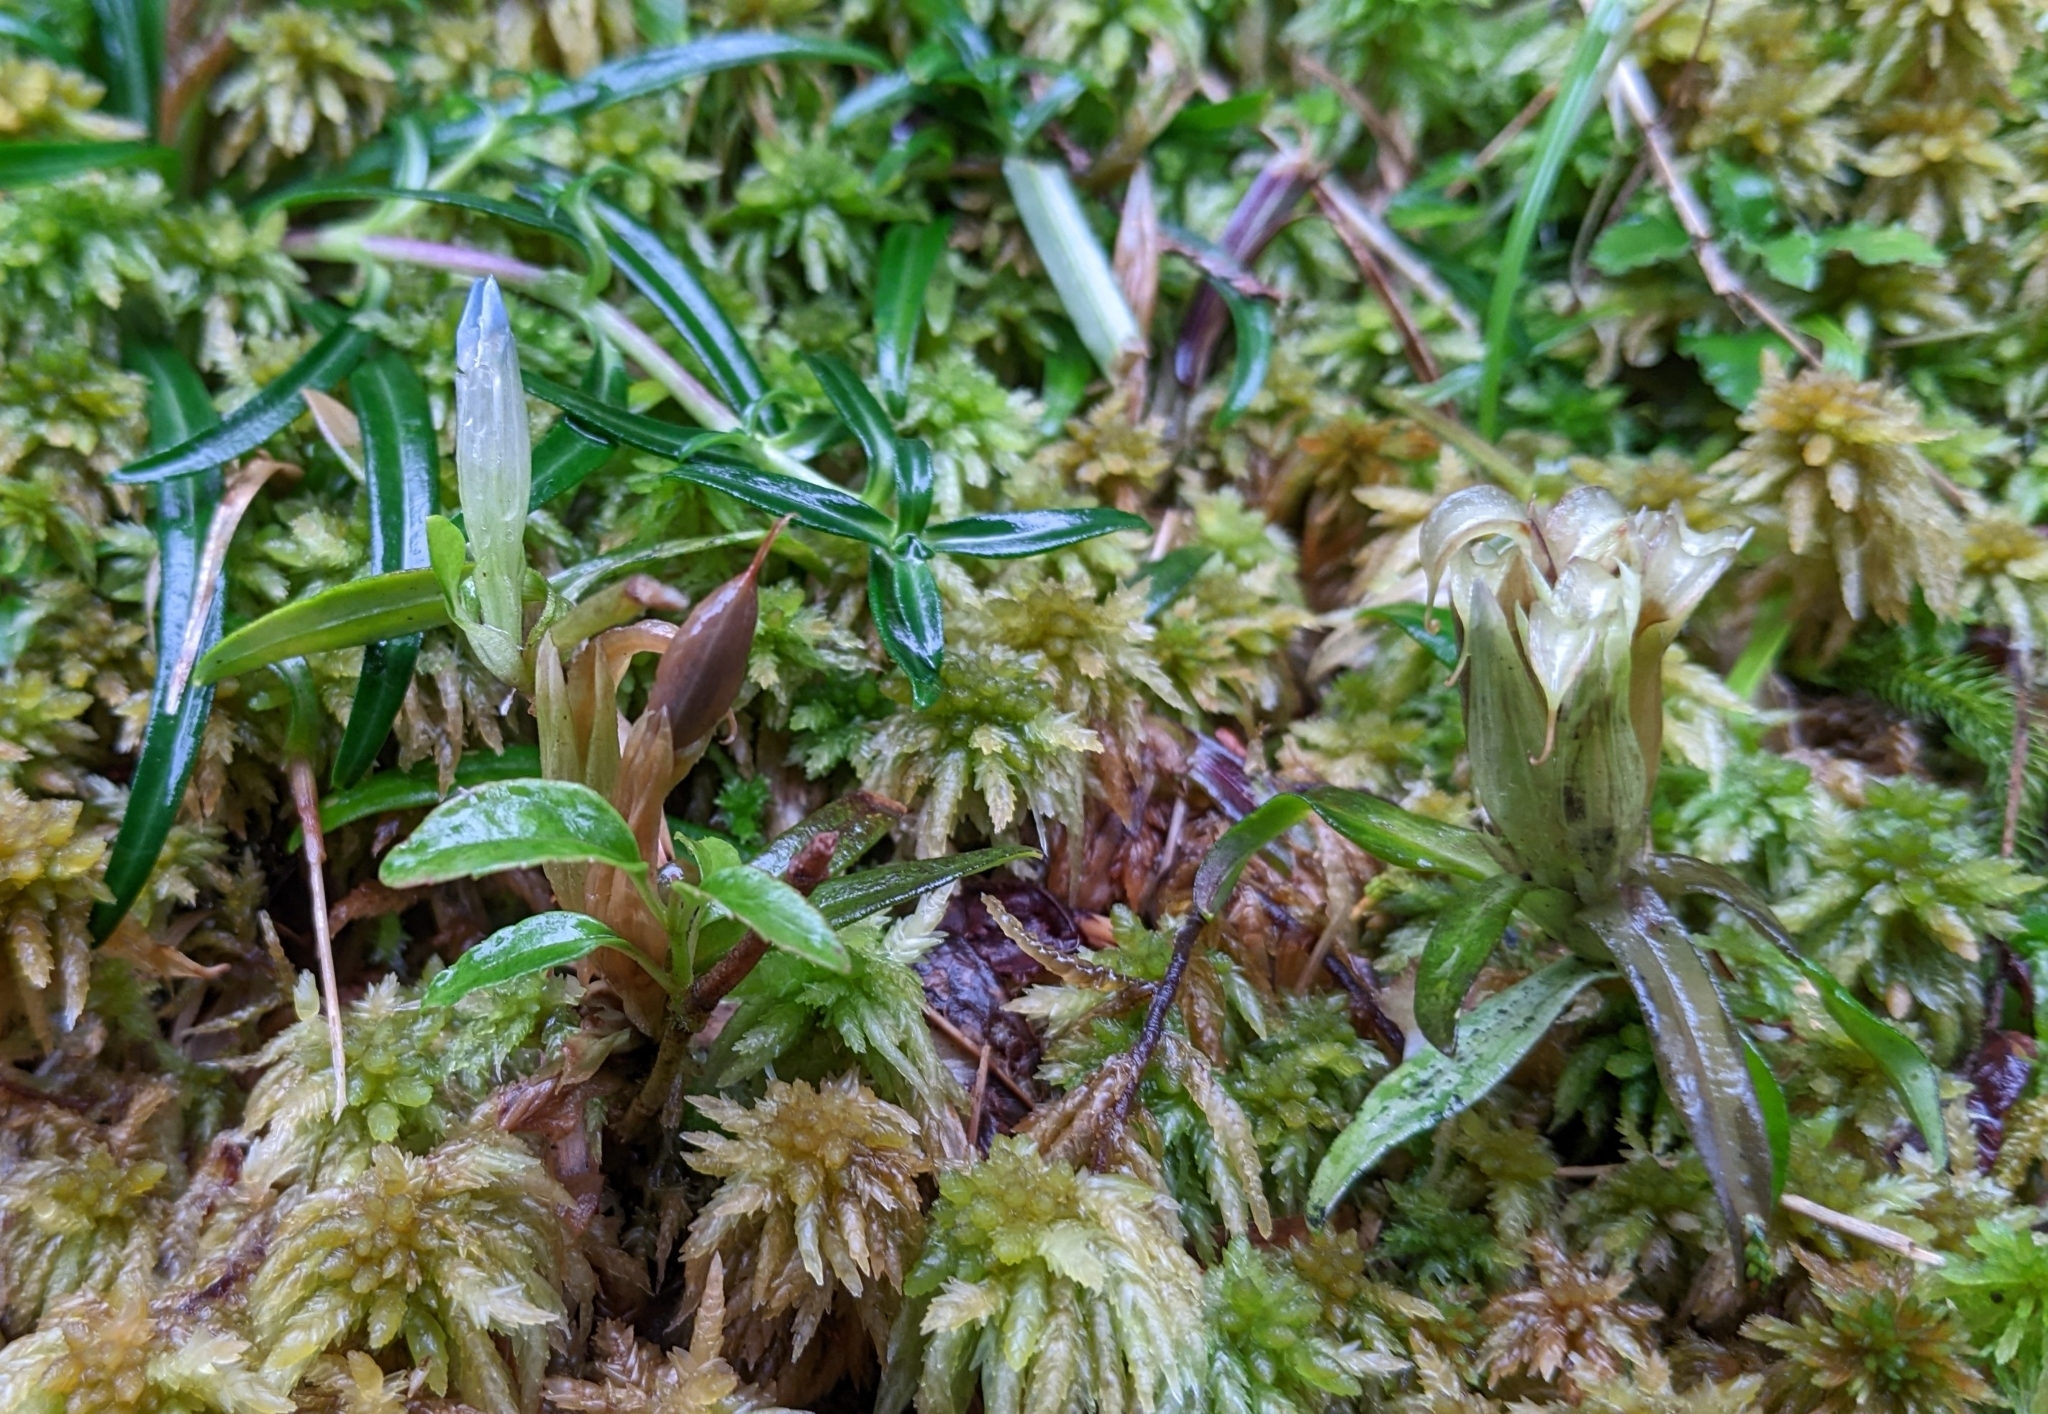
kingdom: Plantae
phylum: Tracheophyta
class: Magnoliopsida
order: Gentianales
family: Gentianaceae
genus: Gentiana
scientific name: Gentiana davidii
